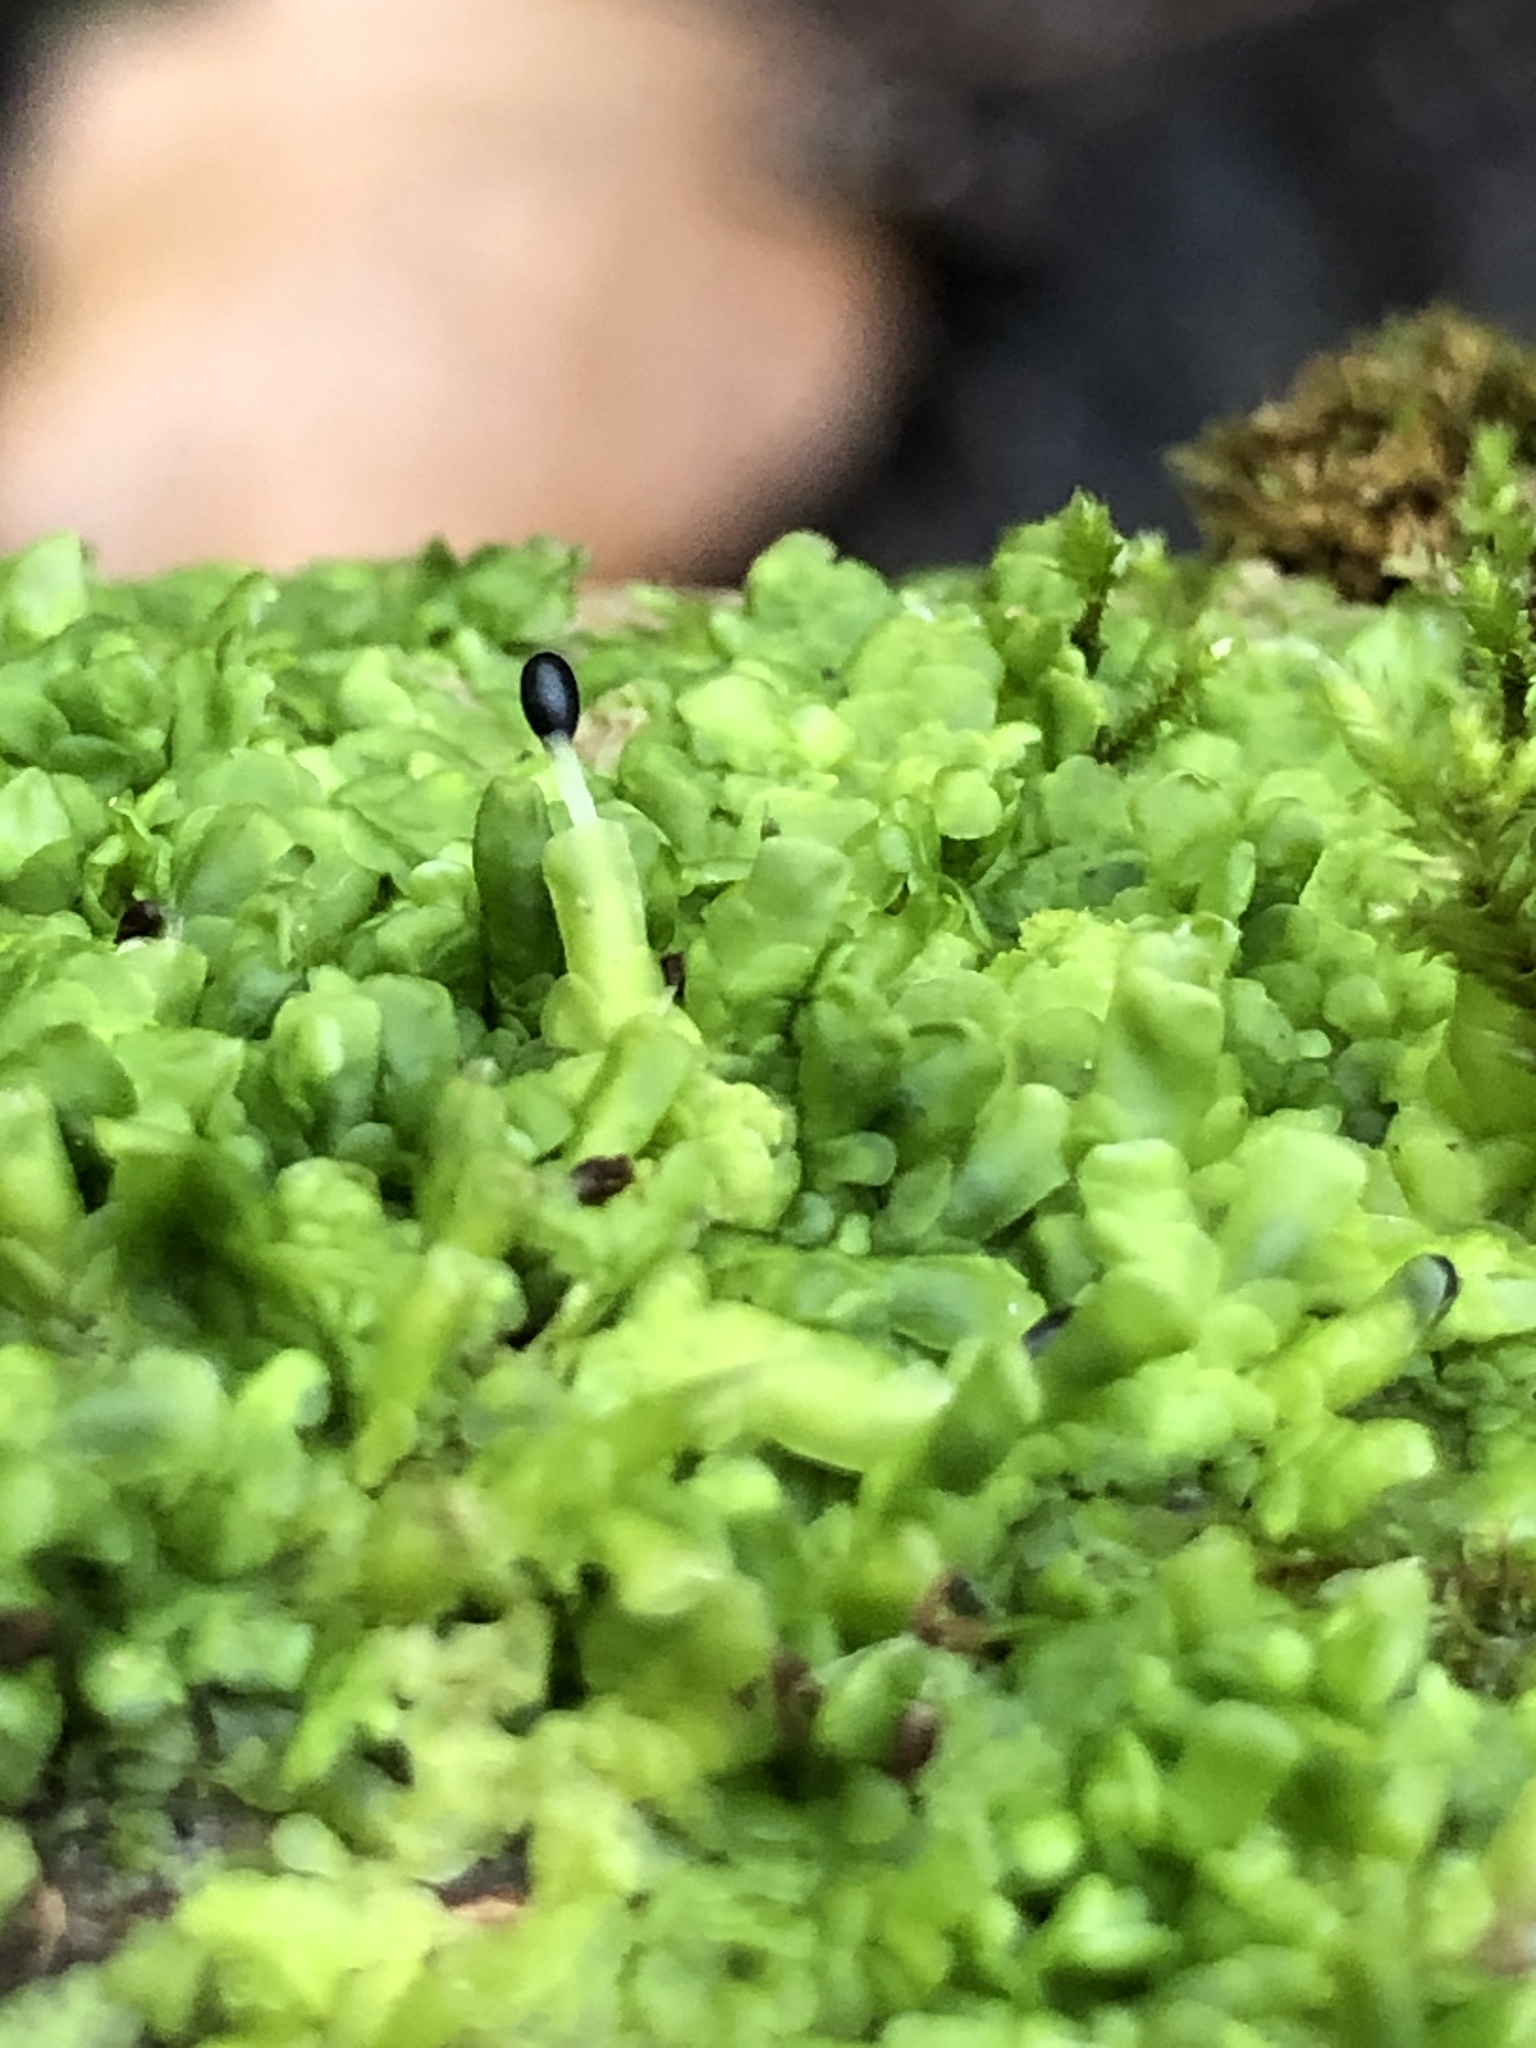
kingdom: Plantae
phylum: Marchantiophyta
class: Jungermanniopsida
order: Porellales
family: Radulaceae
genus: Radula
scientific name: Radula complanata
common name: Flat-leaved scalewort
